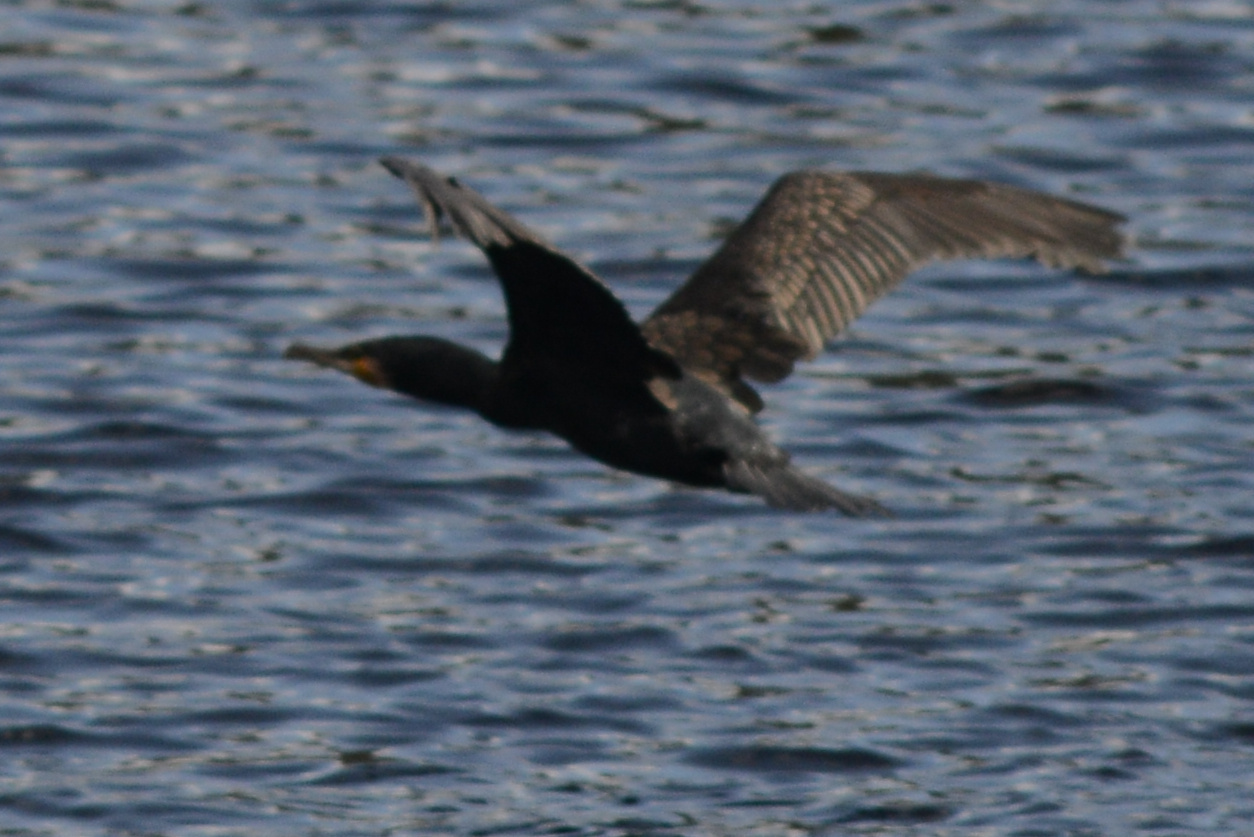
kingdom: Animalia
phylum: Chordata
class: Aves
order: Suliformes
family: Phalacrocoracidae
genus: Phalacrocorax
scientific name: Phalacrocorax carbo
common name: Great cormorant
